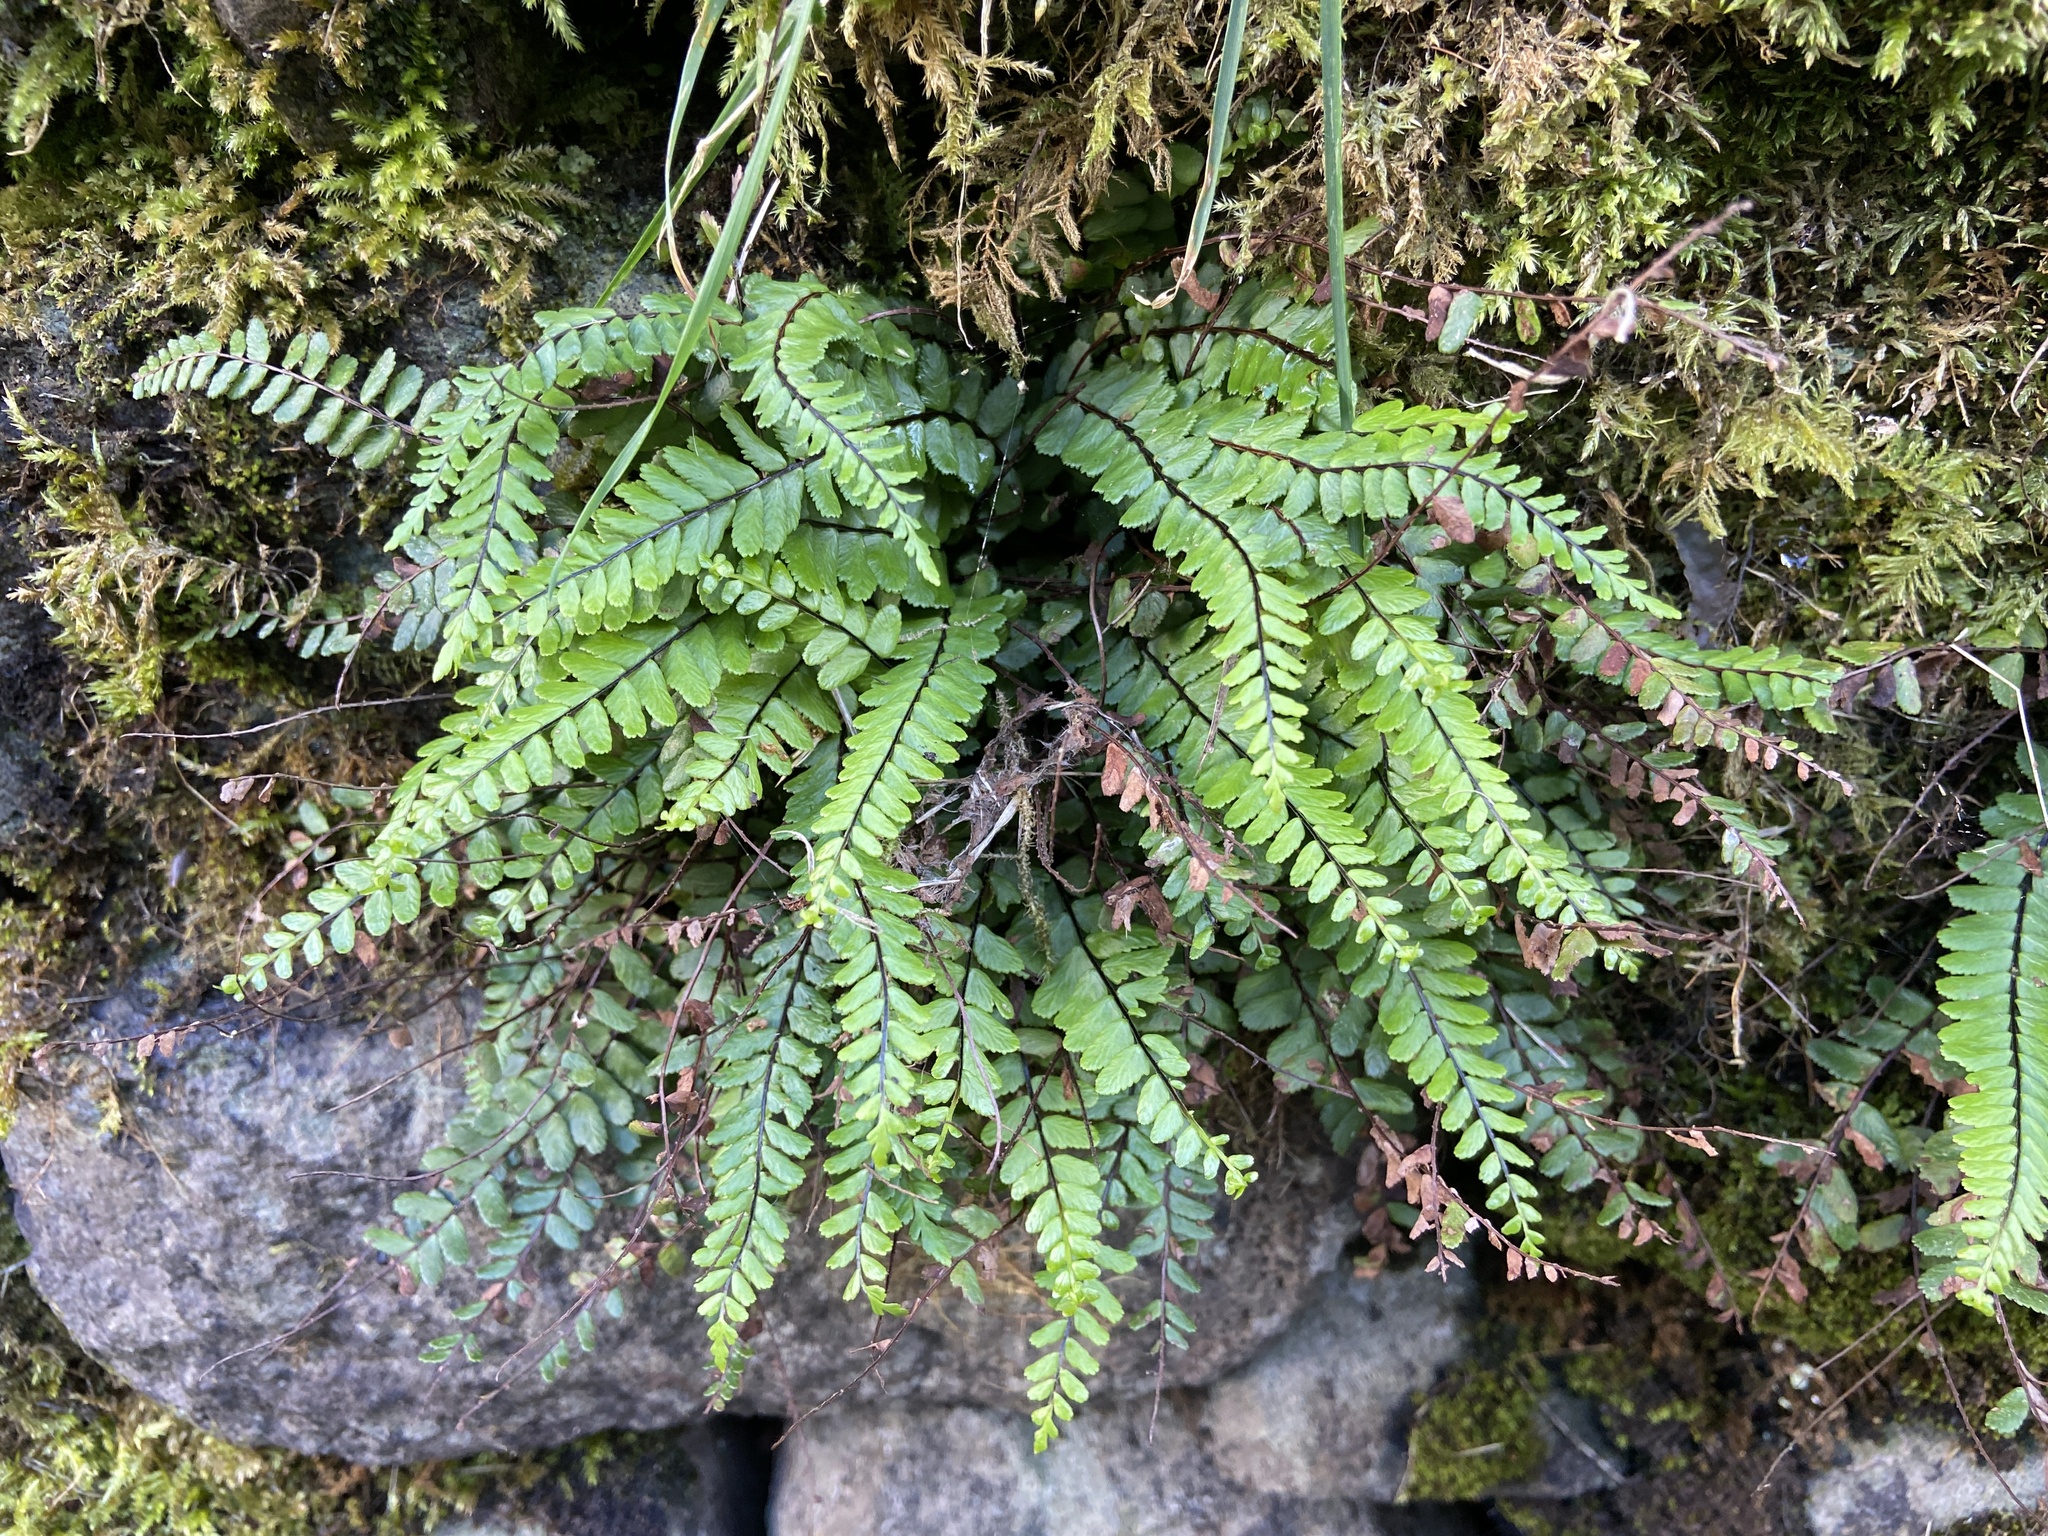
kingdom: Plantae
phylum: Tracheophyta
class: Polypodiopsida
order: Polypodiales
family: Aspleniaceae
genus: Asplenium
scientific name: Asplenium trichomanes
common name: Maidenhair spleenwort
